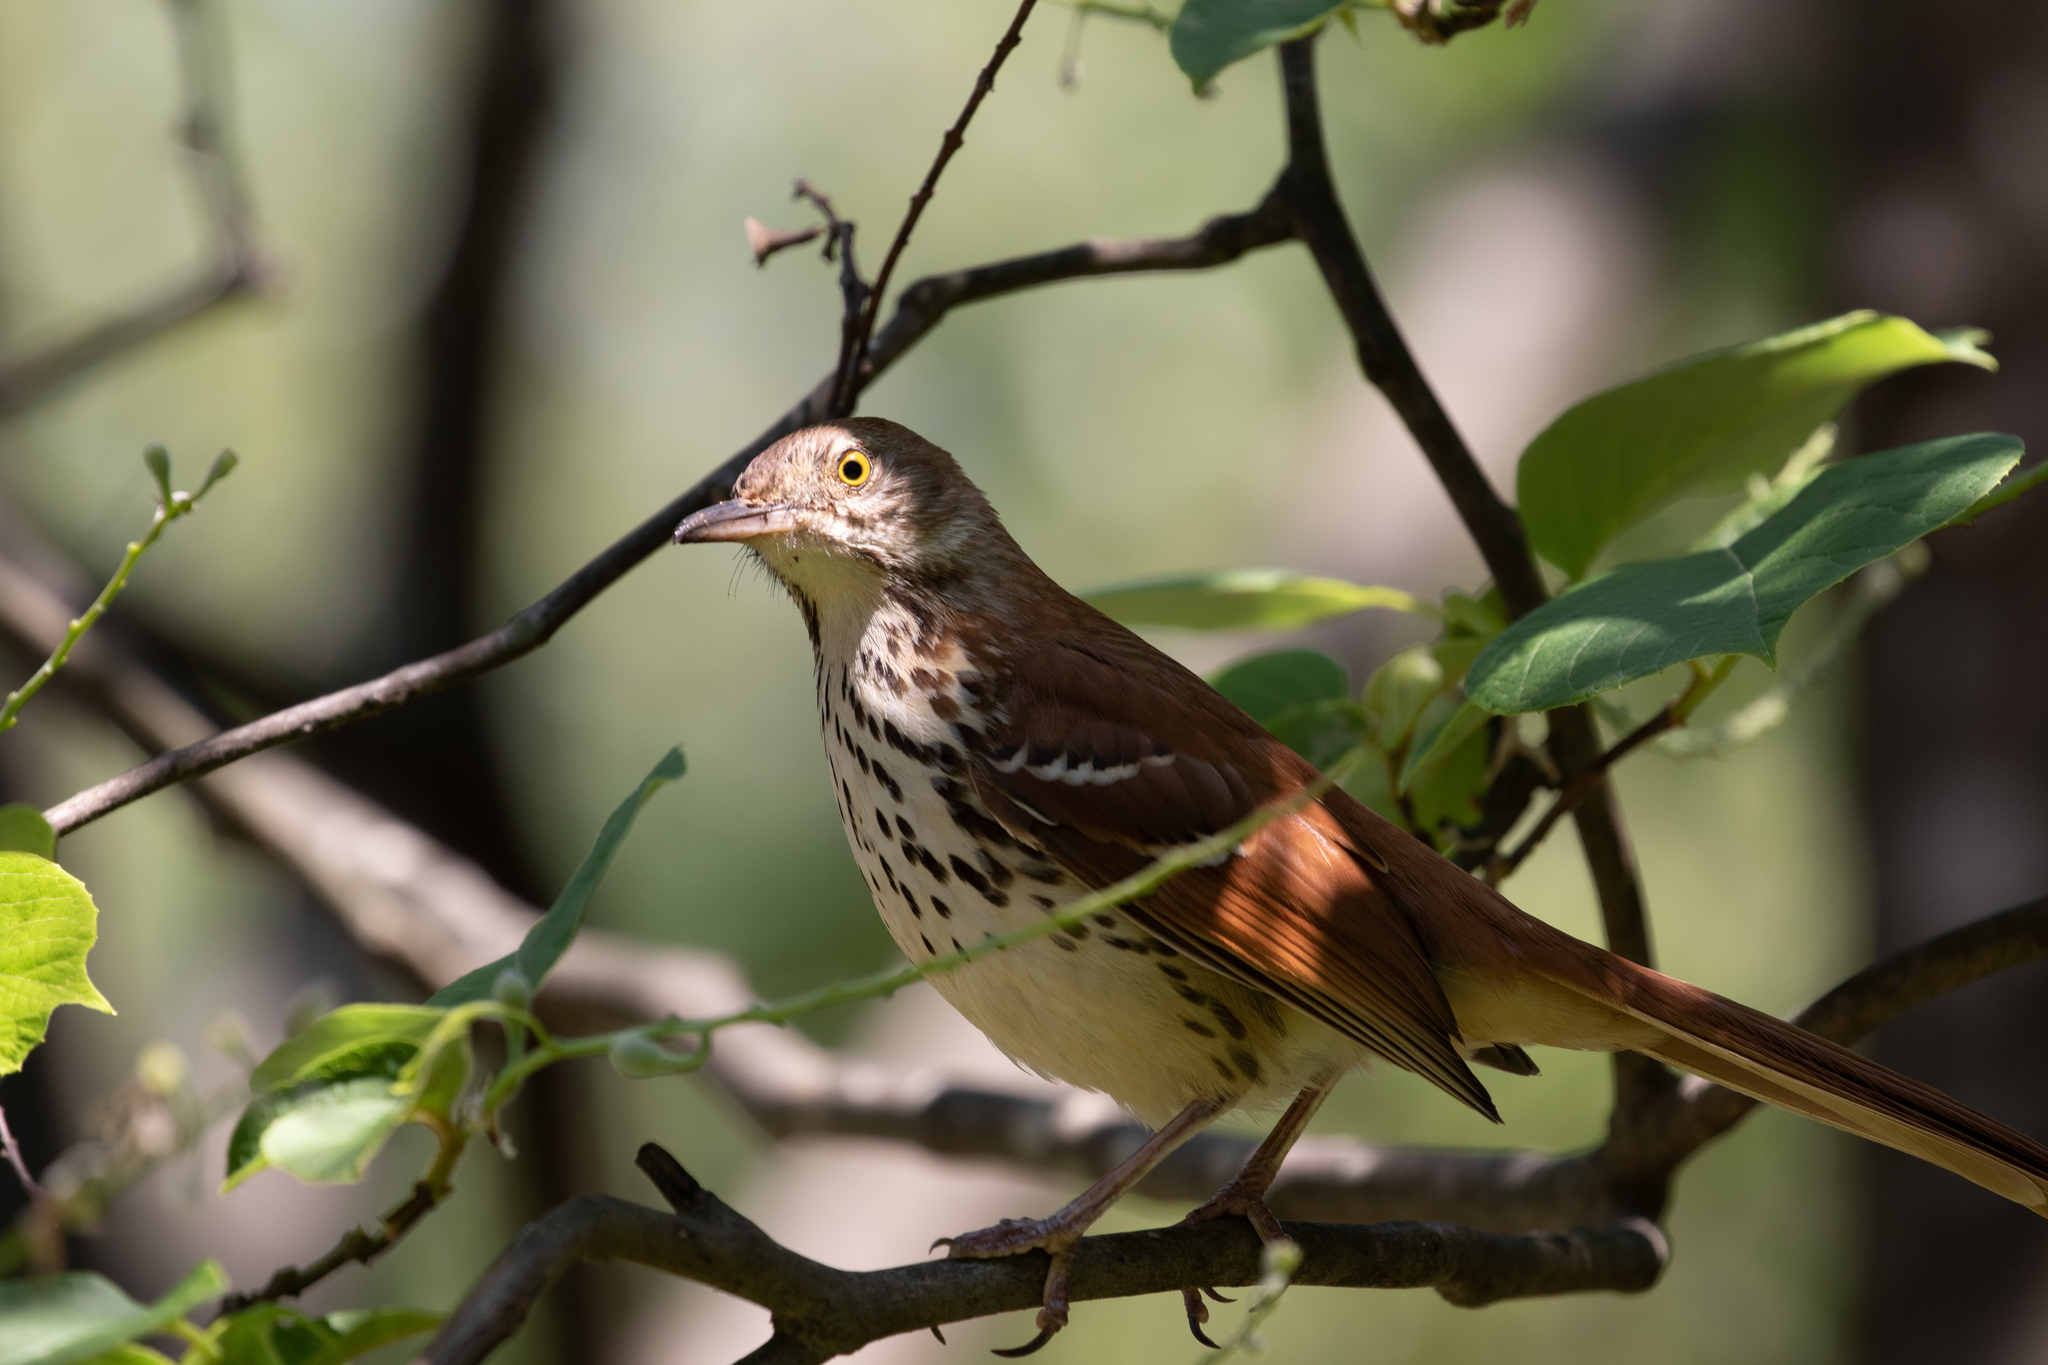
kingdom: Animalia
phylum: Chordata
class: Aves
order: Passeriformes
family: Mimidae
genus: Toxostoma
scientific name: Toxostoma rufum
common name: Brown thrasher
